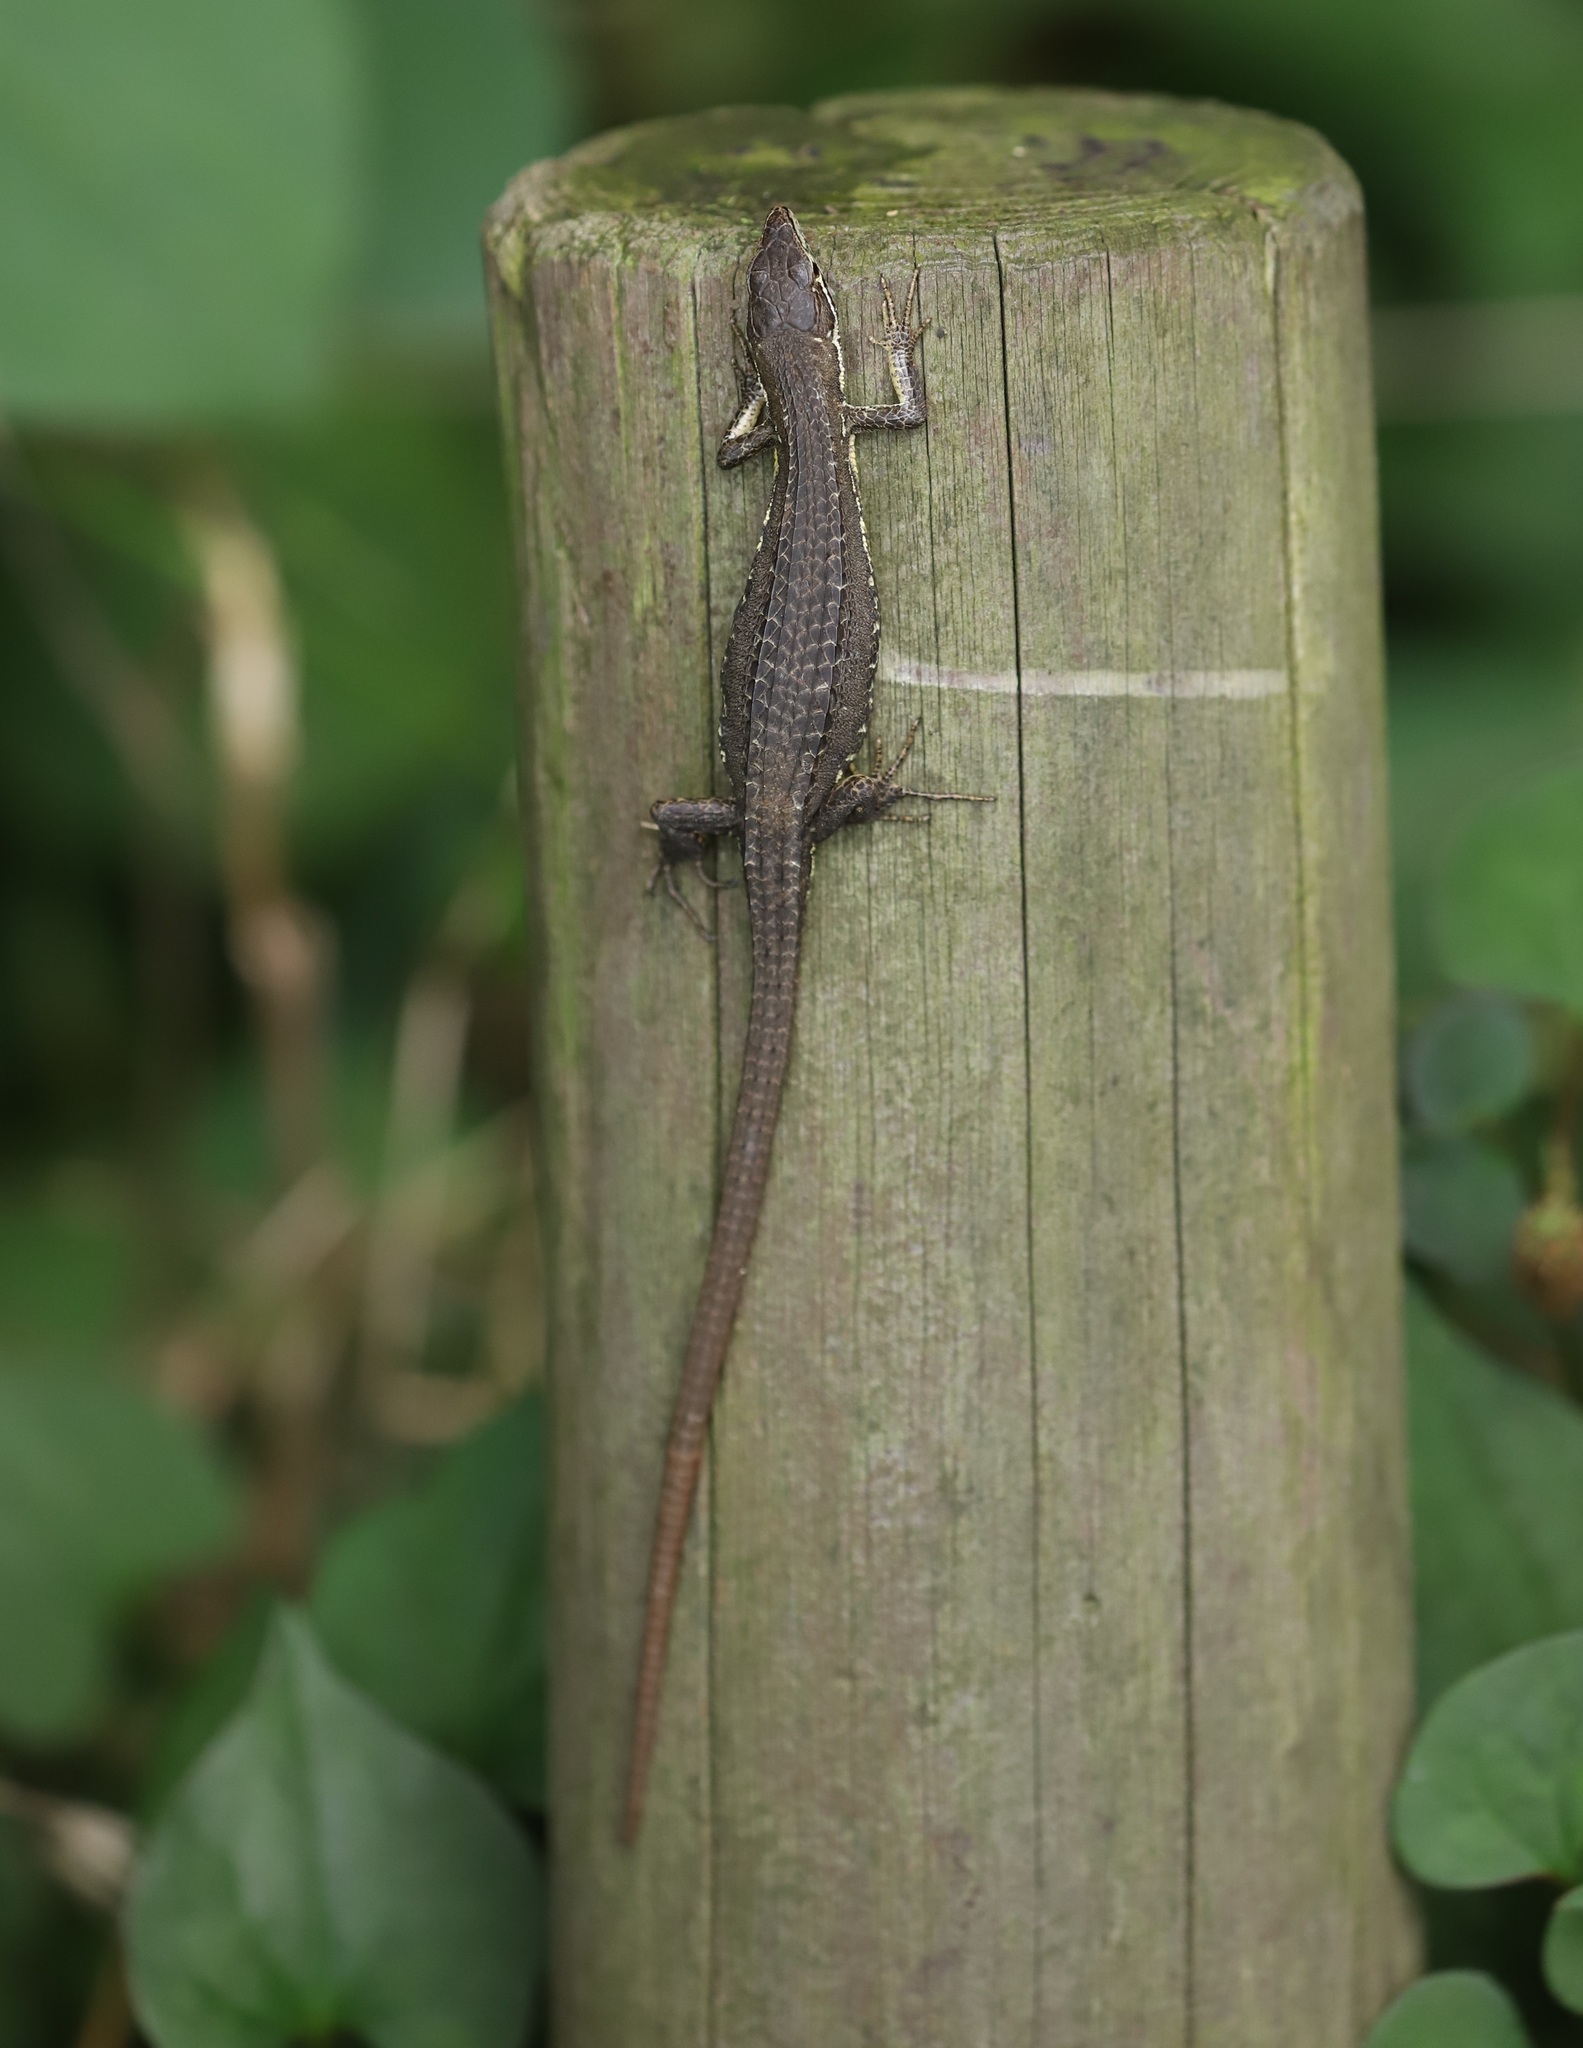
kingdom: Animalia
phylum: Chordata
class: Squamata
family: Lacertidae
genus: Takydromus
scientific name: Takydromus tachydromoides
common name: Japanese grass lizard
